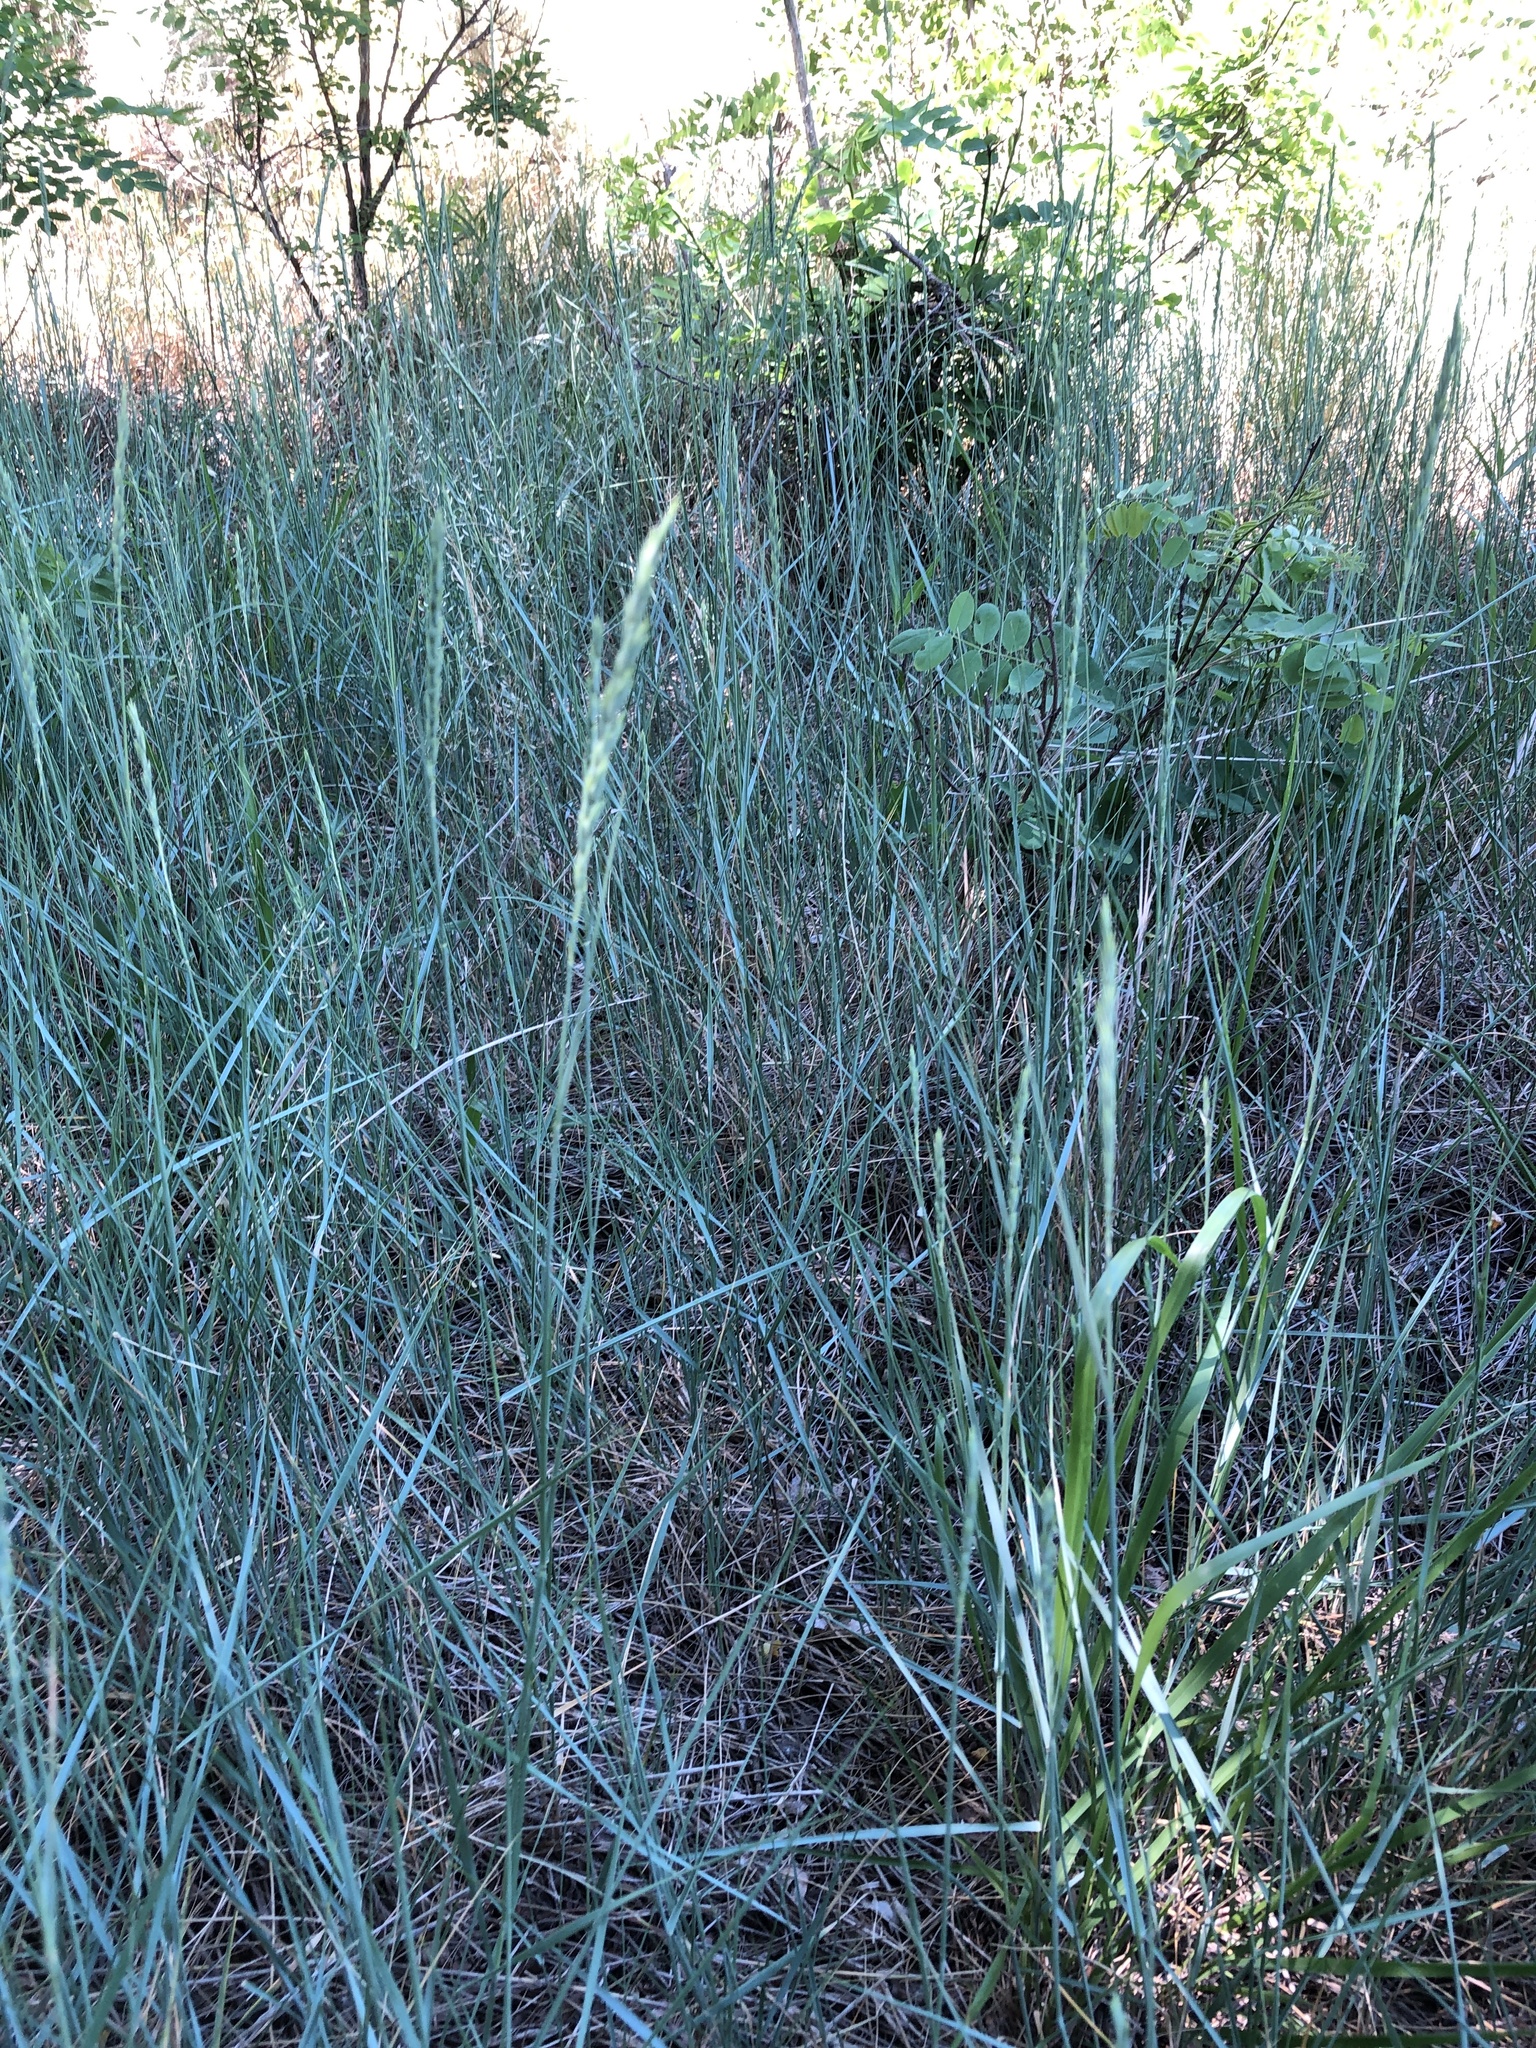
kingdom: Plantae
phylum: Tracheophyta
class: Liliopsida
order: Poales
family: Poaceae
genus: Elymus
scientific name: Elymus smithii
